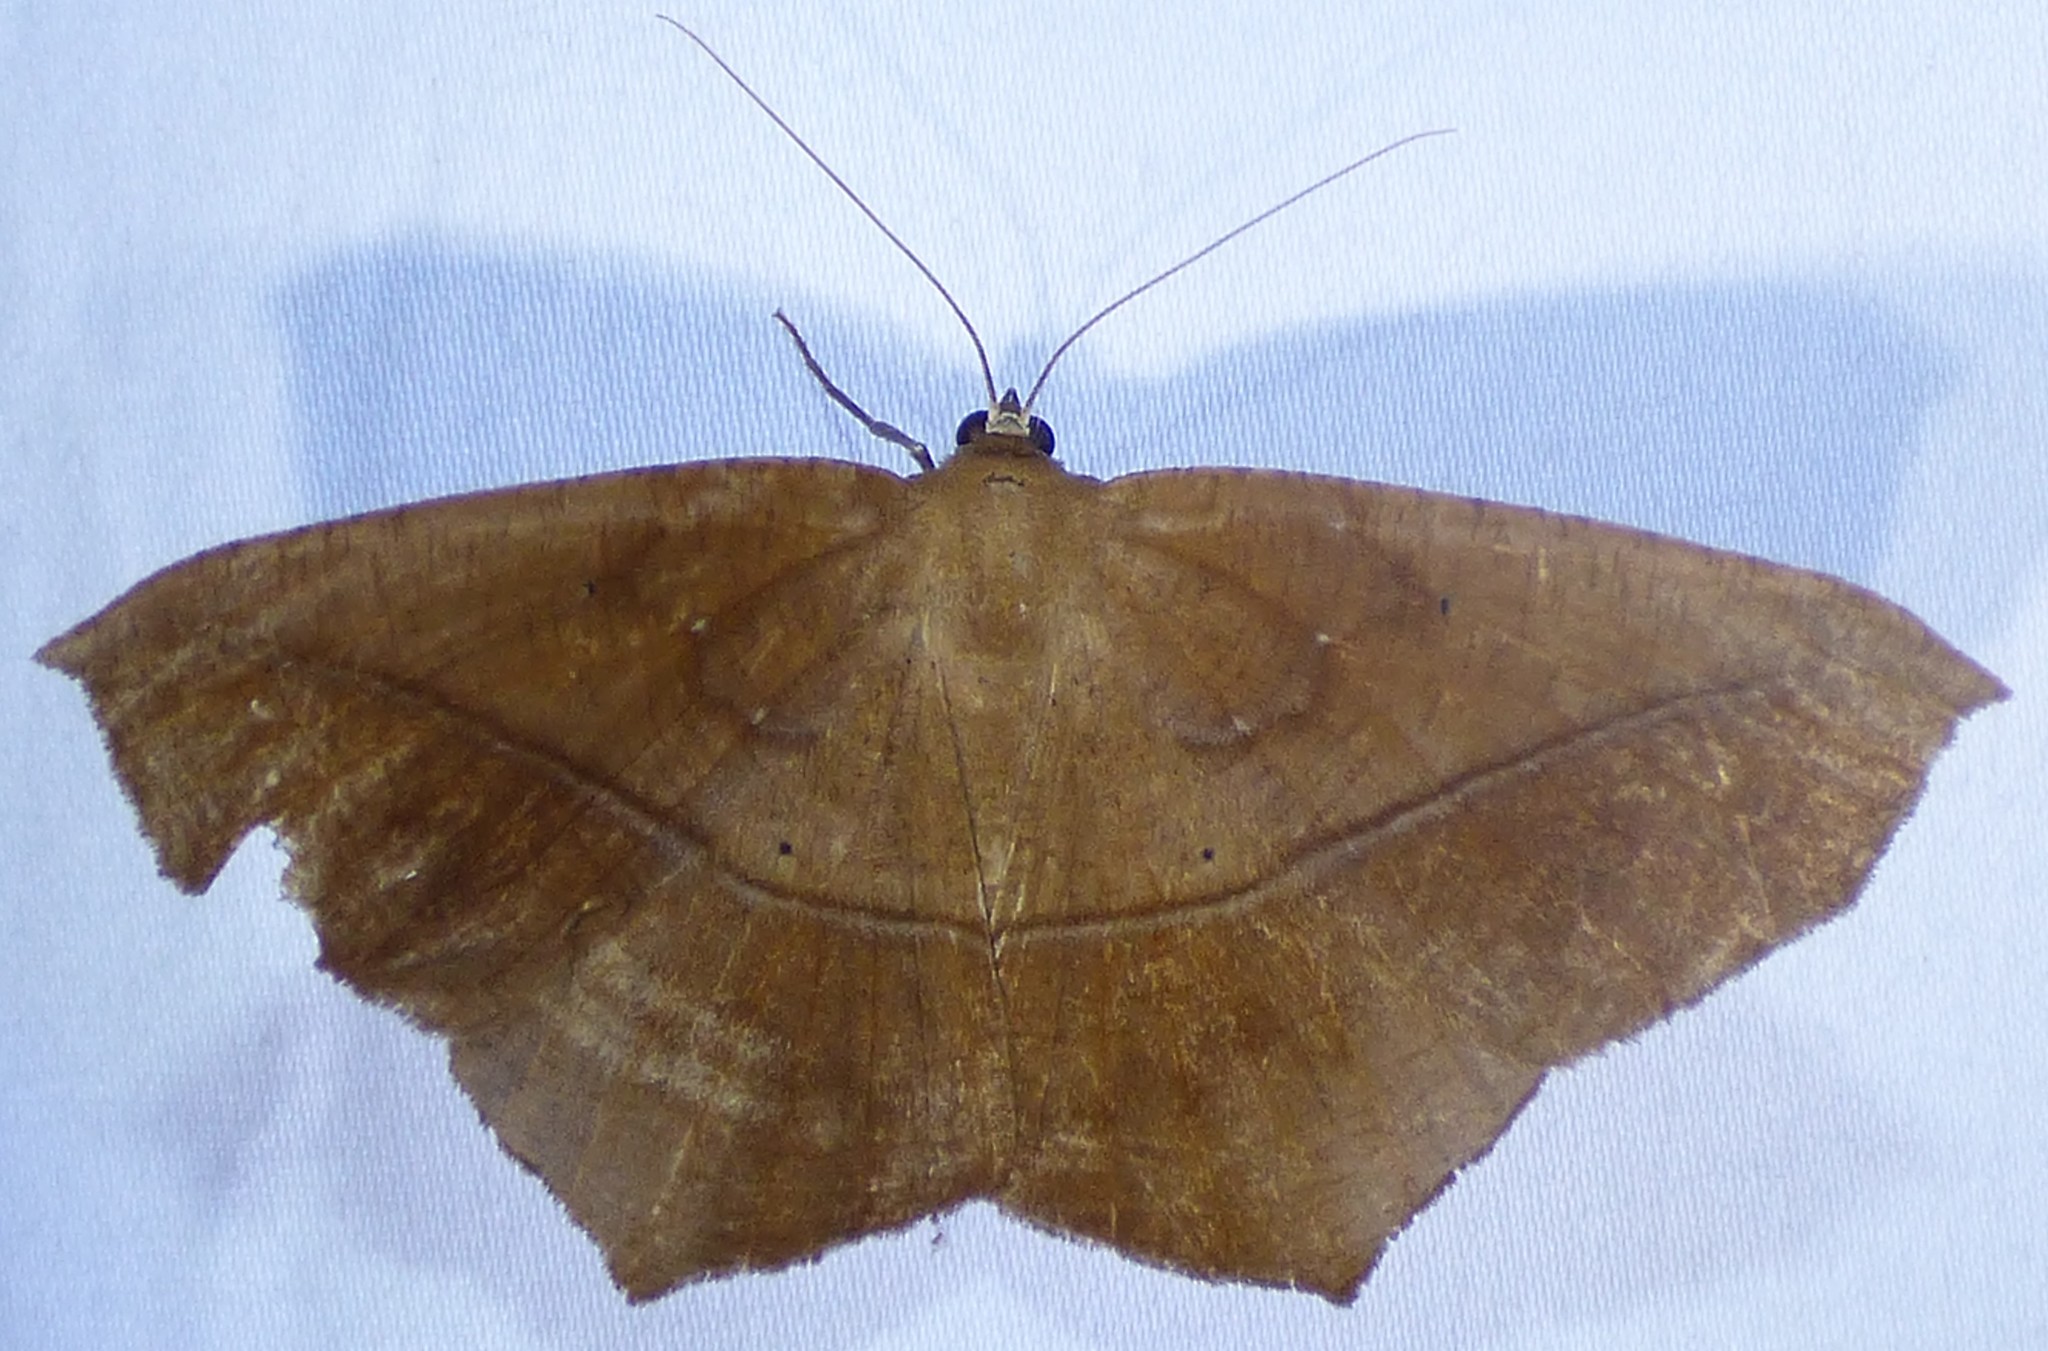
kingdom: Animalia
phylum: Arthropoda
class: Insecta
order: Lepidoptera
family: Geometridae
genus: Prochoerodes
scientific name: Prochoerodes lineola
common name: Large maple spanworm
